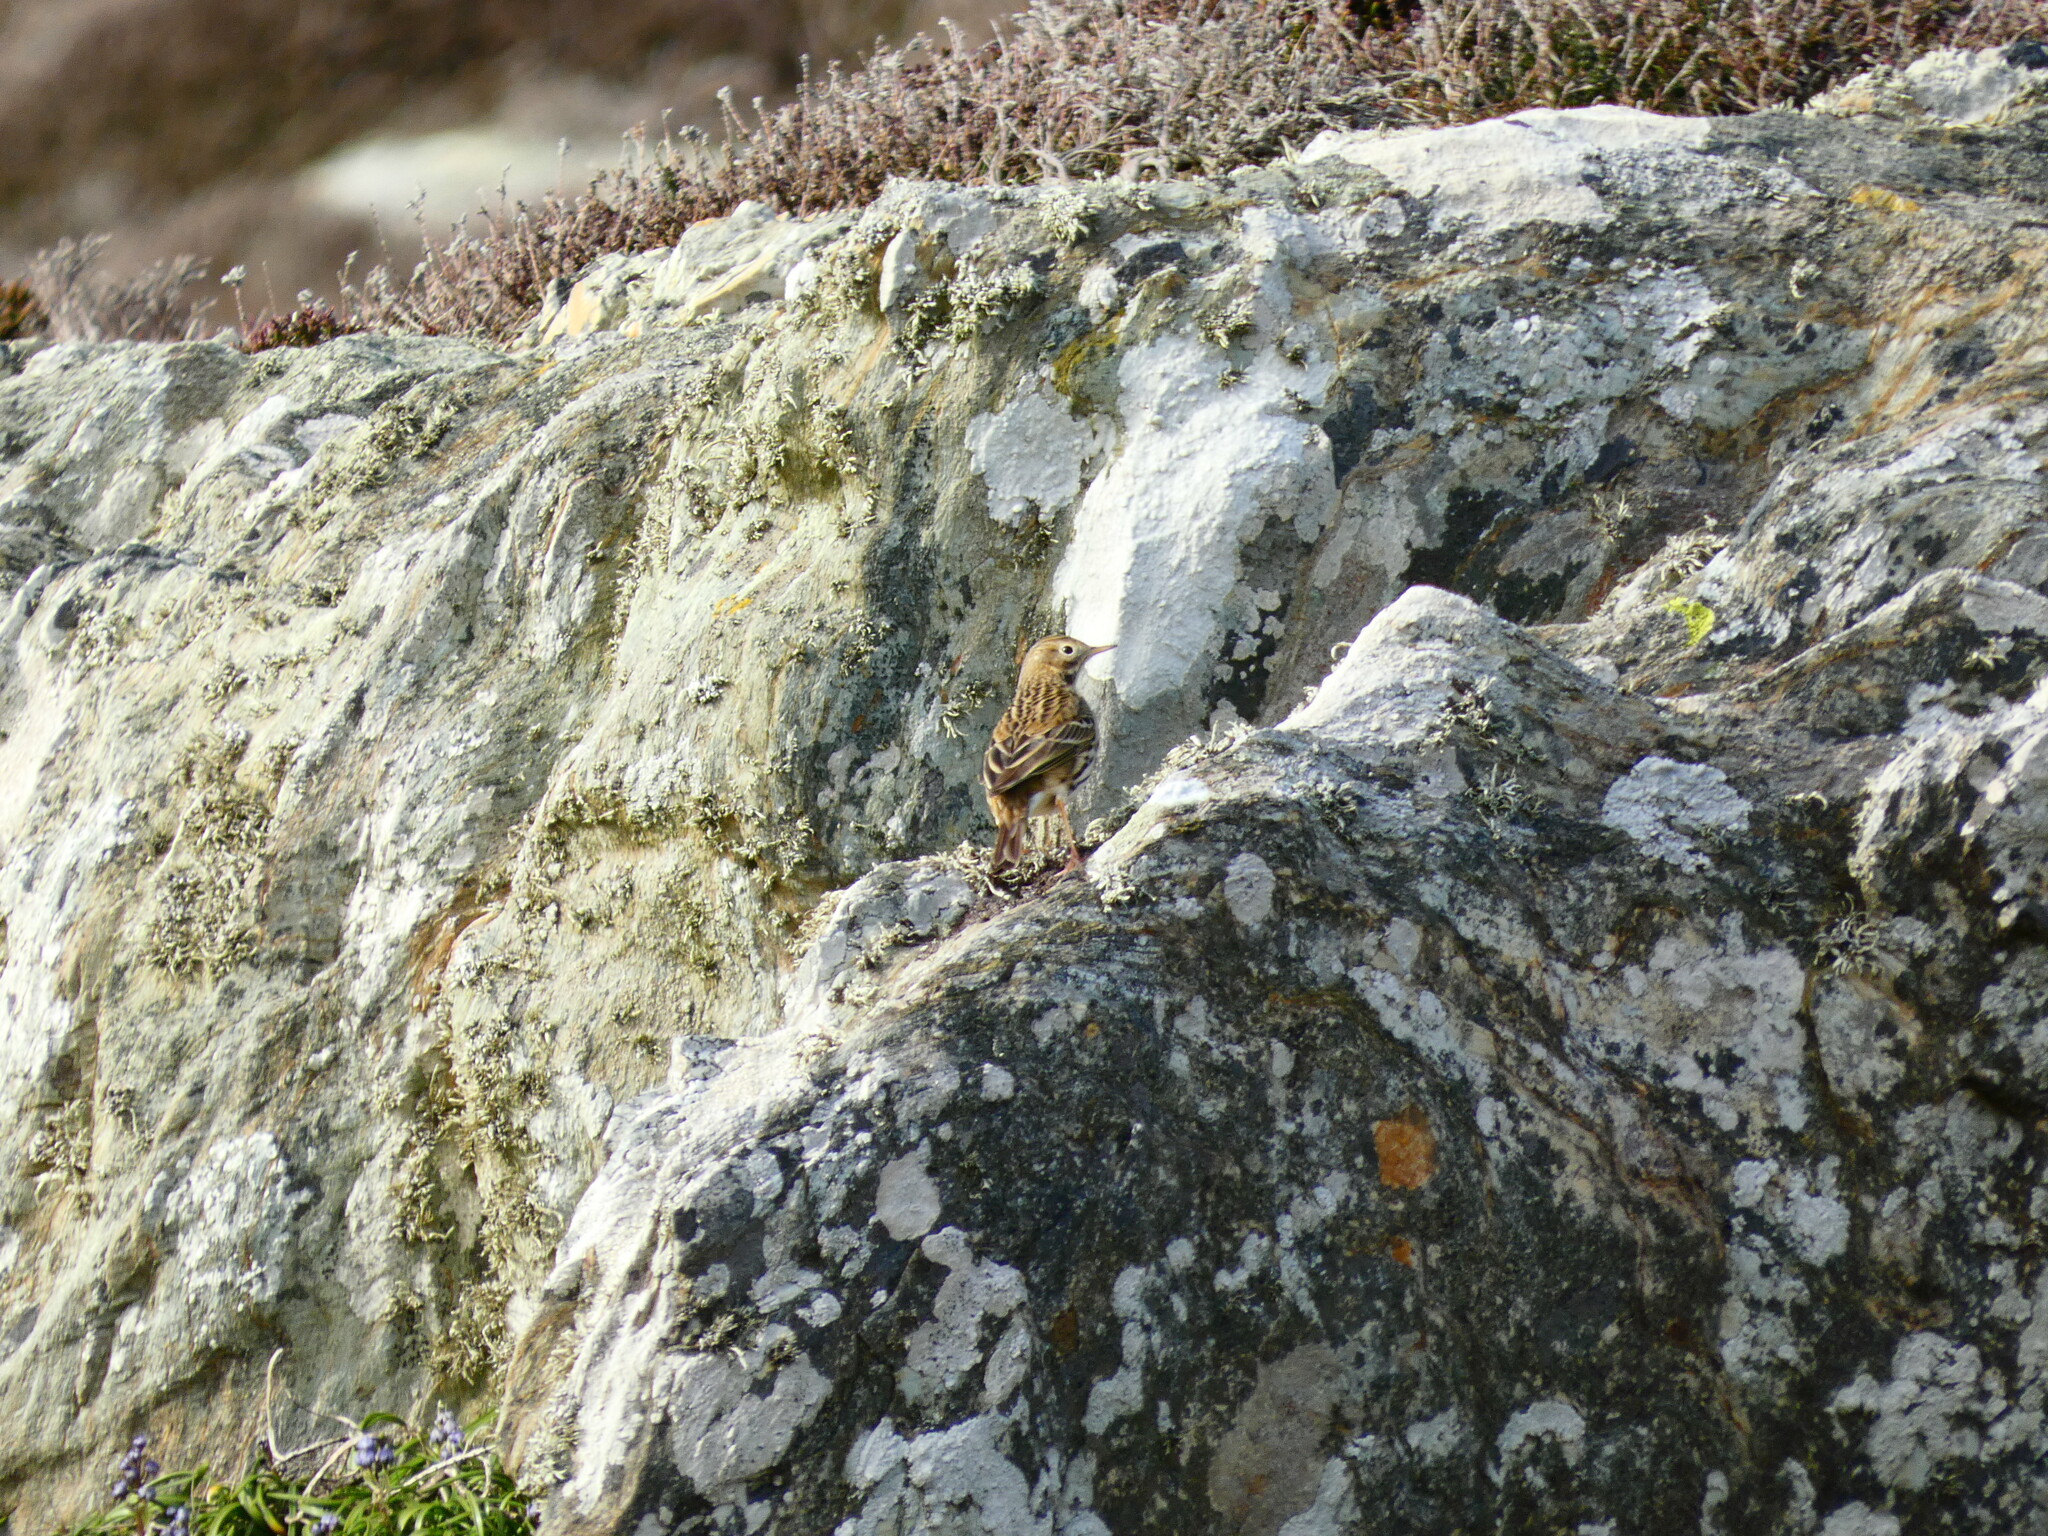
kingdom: Animalia
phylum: Chordata
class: Aves
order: Passeriformes
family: Motacillidae
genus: Anthus
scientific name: Anthus pratensis
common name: Meadow pipit
